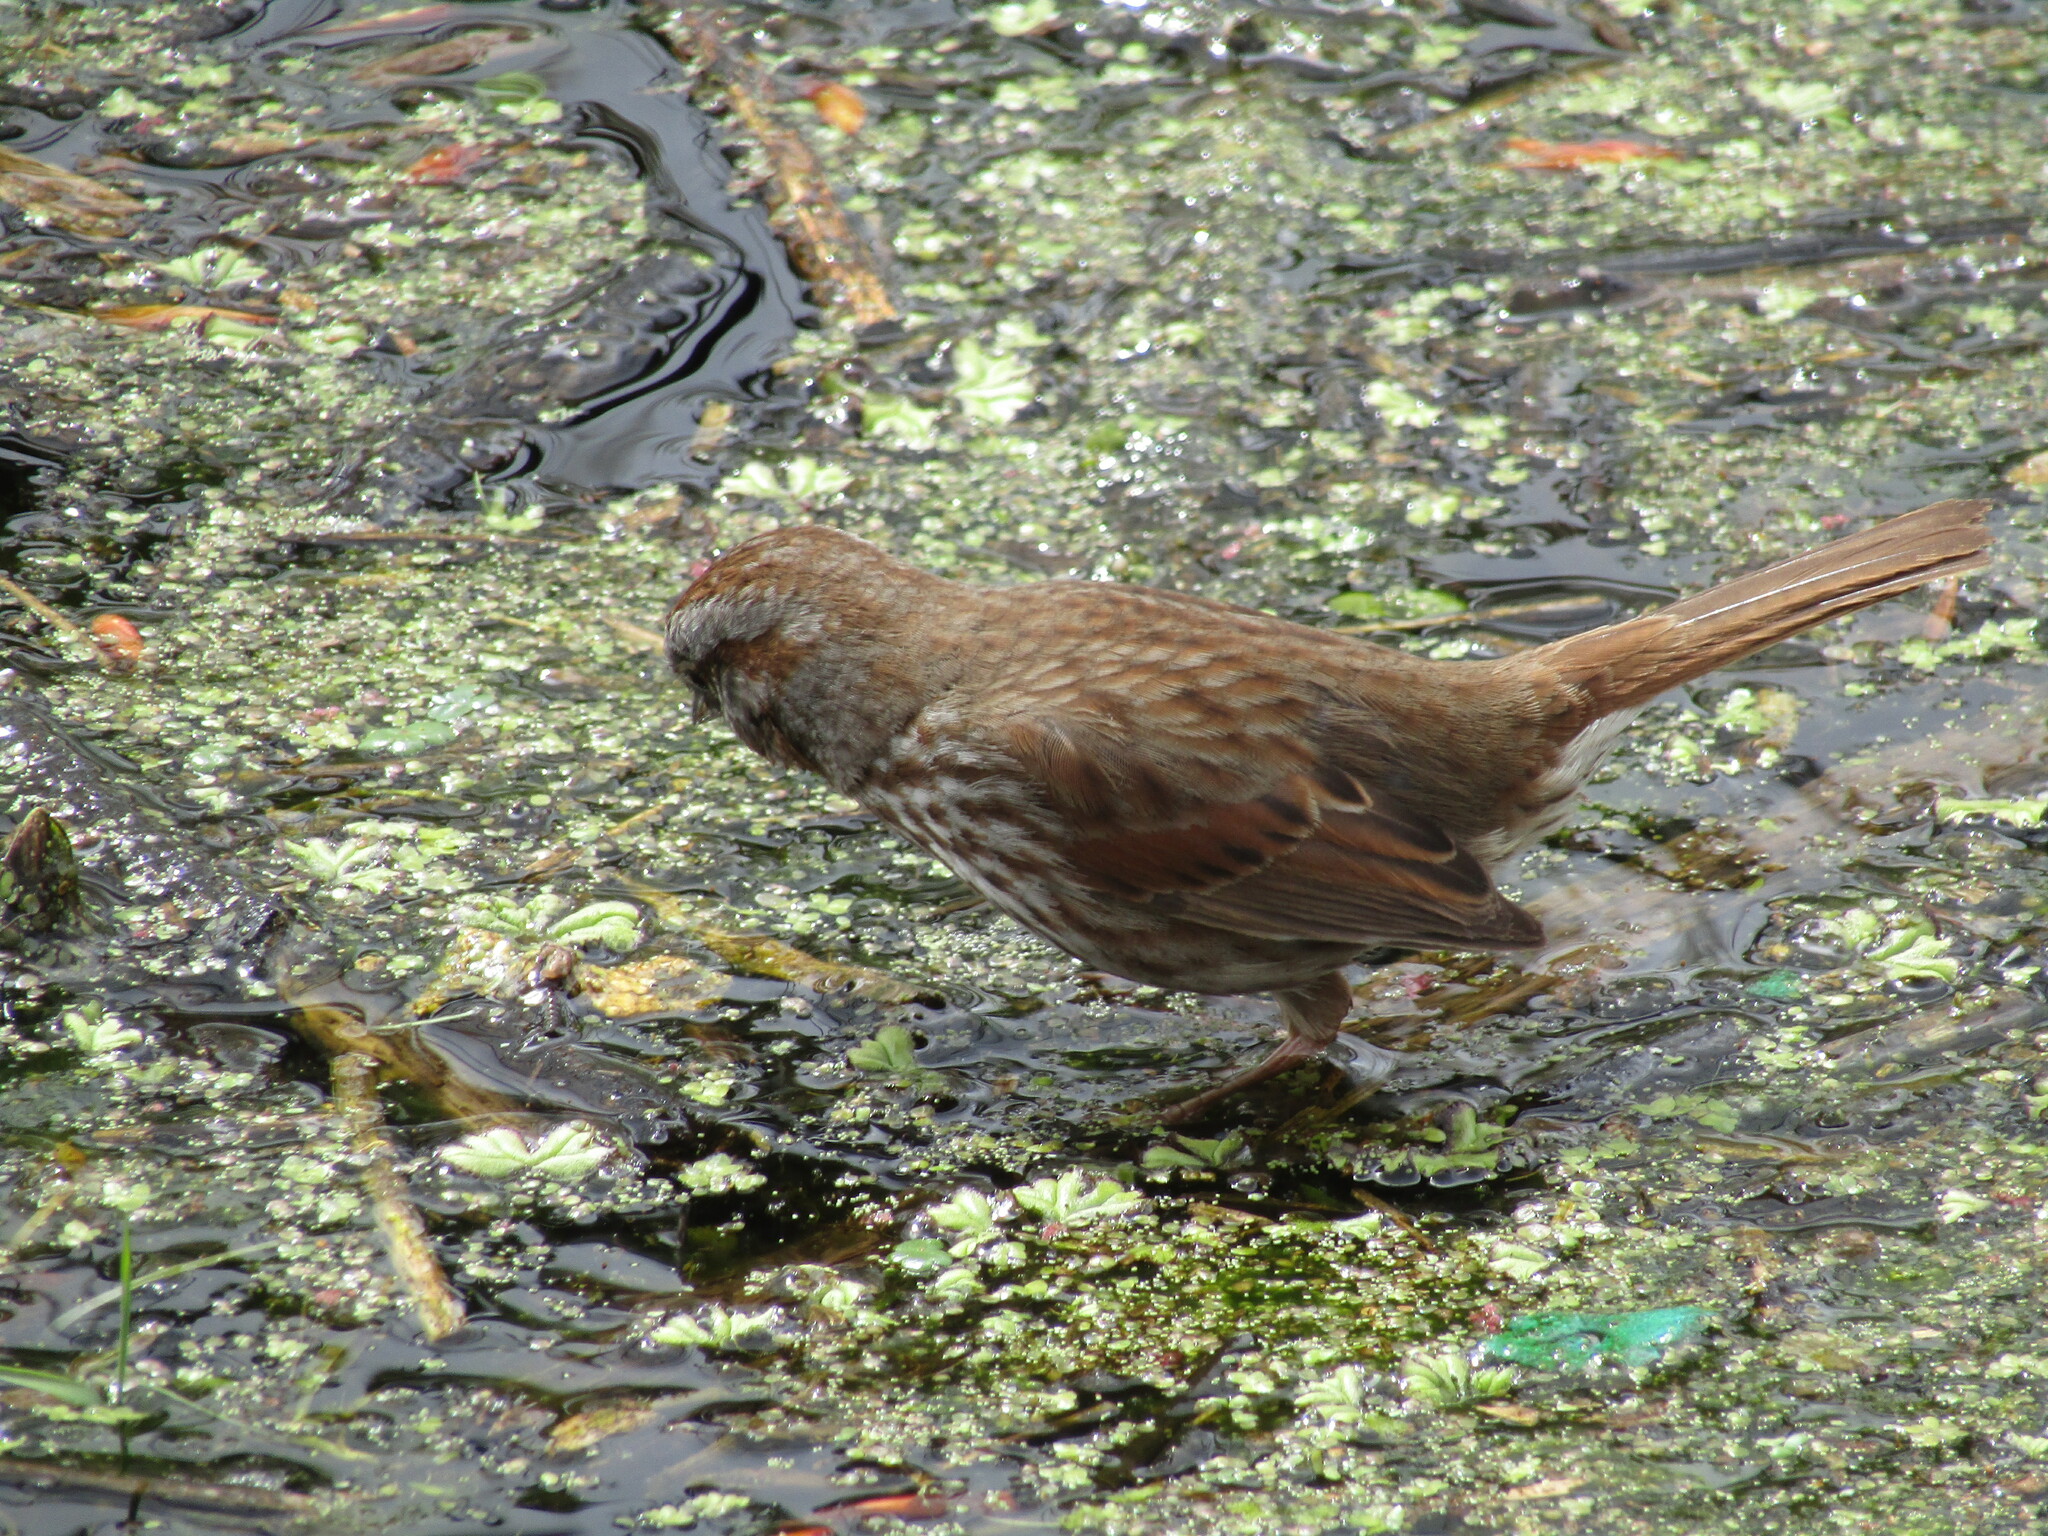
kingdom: Animalia
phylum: Chordata
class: Aves
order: Passeriformes
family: Passerellidae
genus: Melospiza
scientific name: Melospiza melodia
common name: Song sparrow
